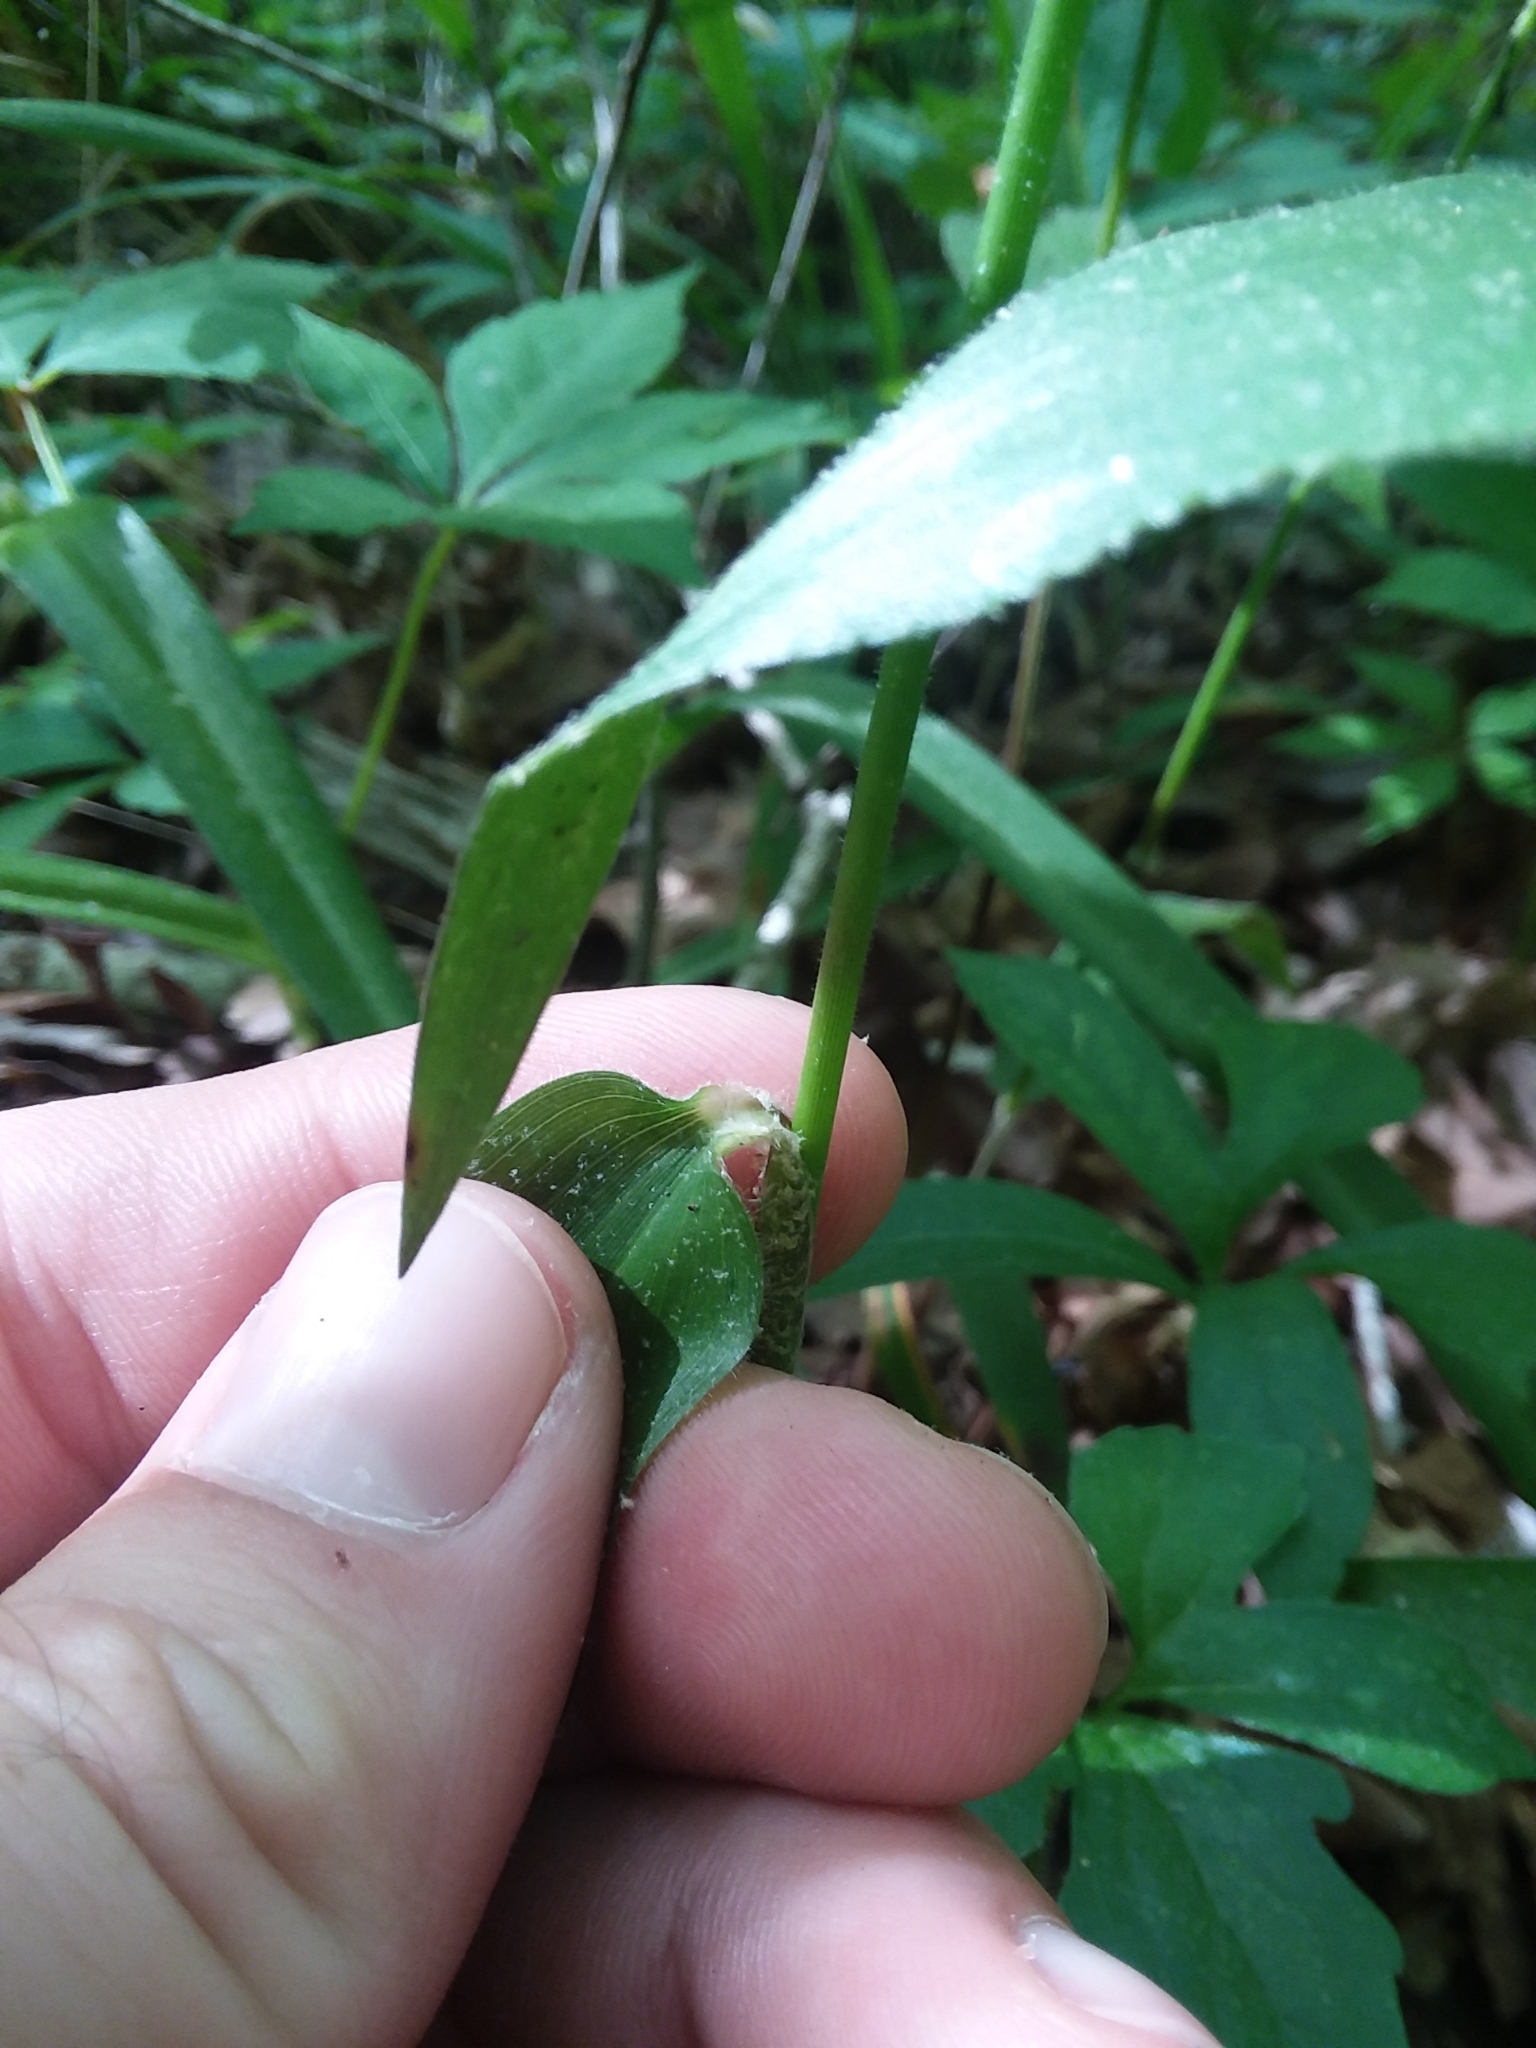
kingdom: Plantae
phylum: Tracheophyta
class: Liliopsida
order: Poales
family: Poaceae
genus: Dichanthelium
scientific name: Dichanthelium boscii
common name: Bosc's panic grass
